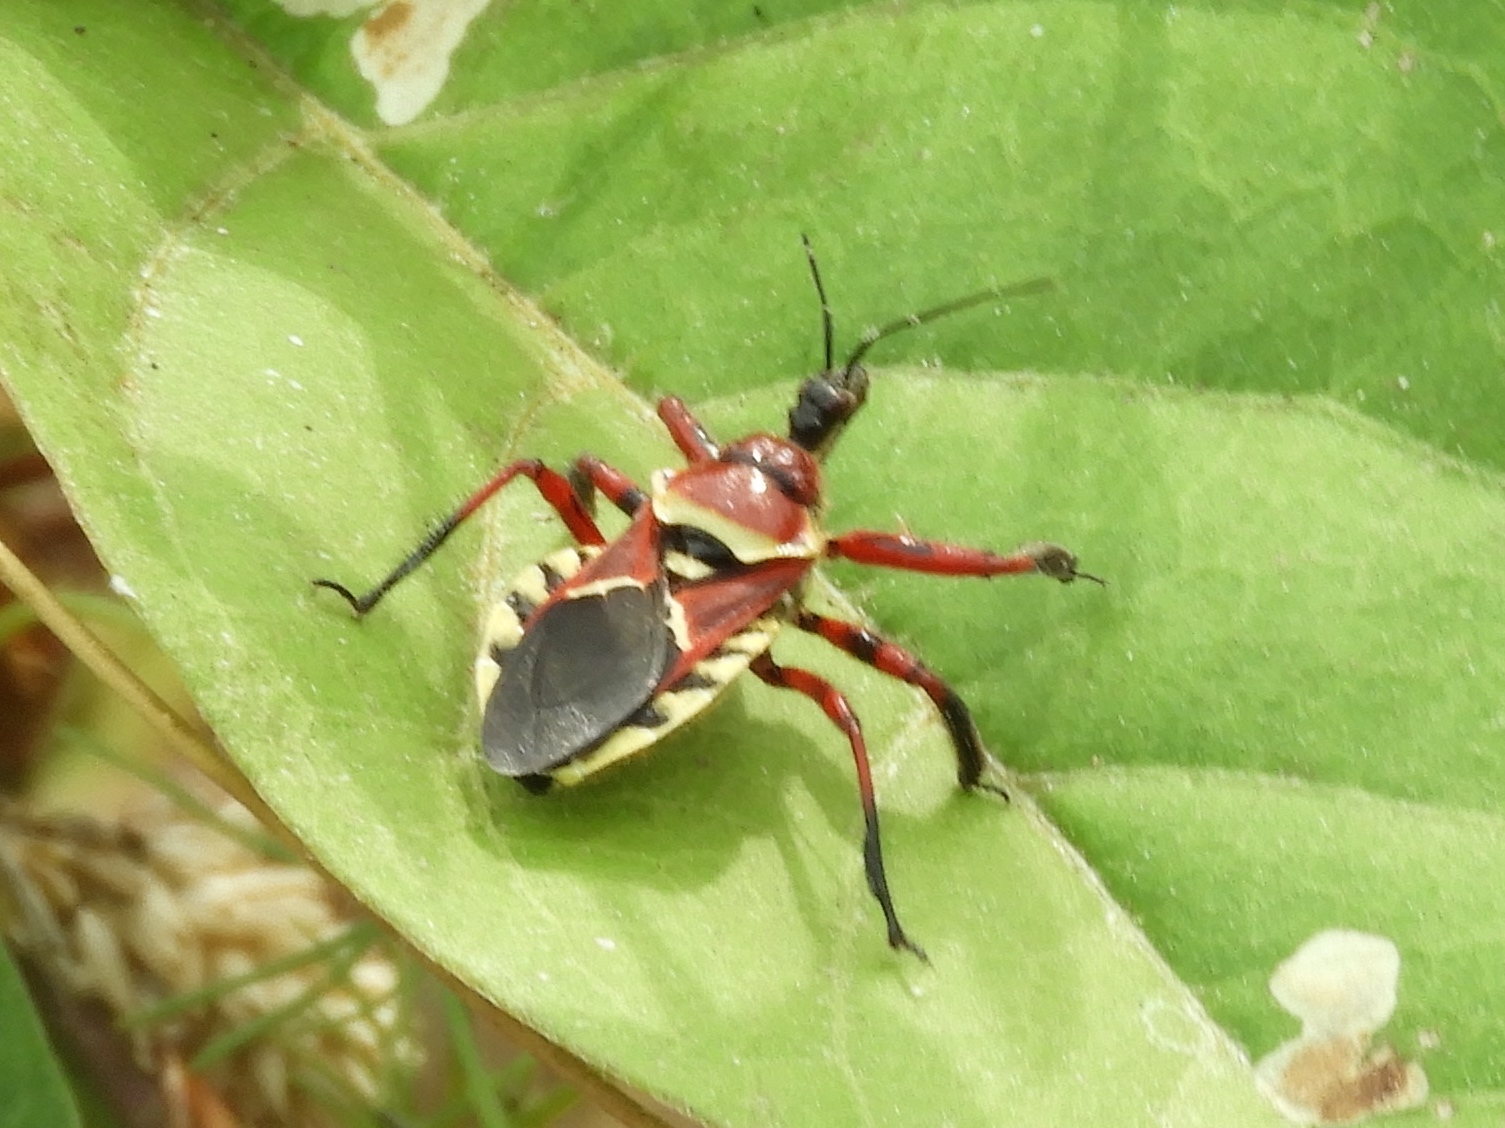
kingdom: Animalia
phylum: Arthropoda
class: Insecta
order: Hemiptera
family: Reduviidae
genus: Apiomerus
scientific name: Apiomerus flaviventris
